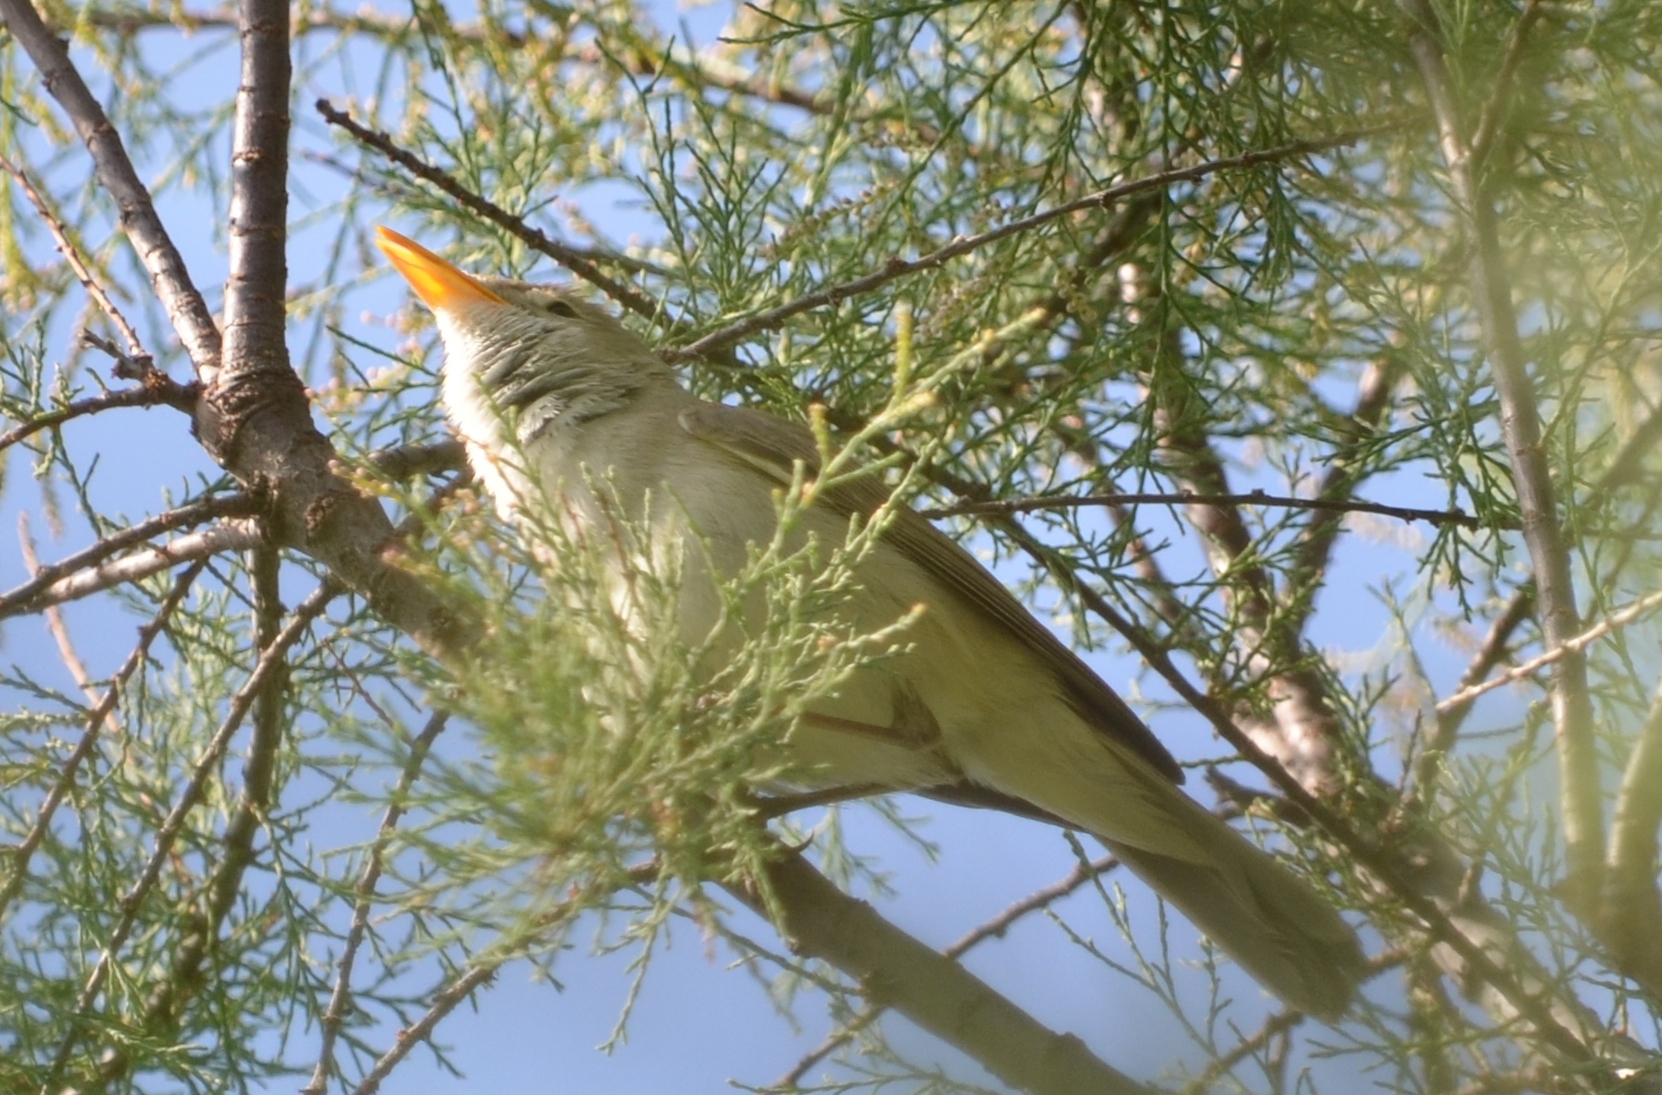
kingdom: Animalia
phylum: Chordata
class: Aves
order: Passeriformes
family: Acrocephalidae
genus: Hippolais
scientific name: Hippolais polyglotta
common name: Melodious warbler
